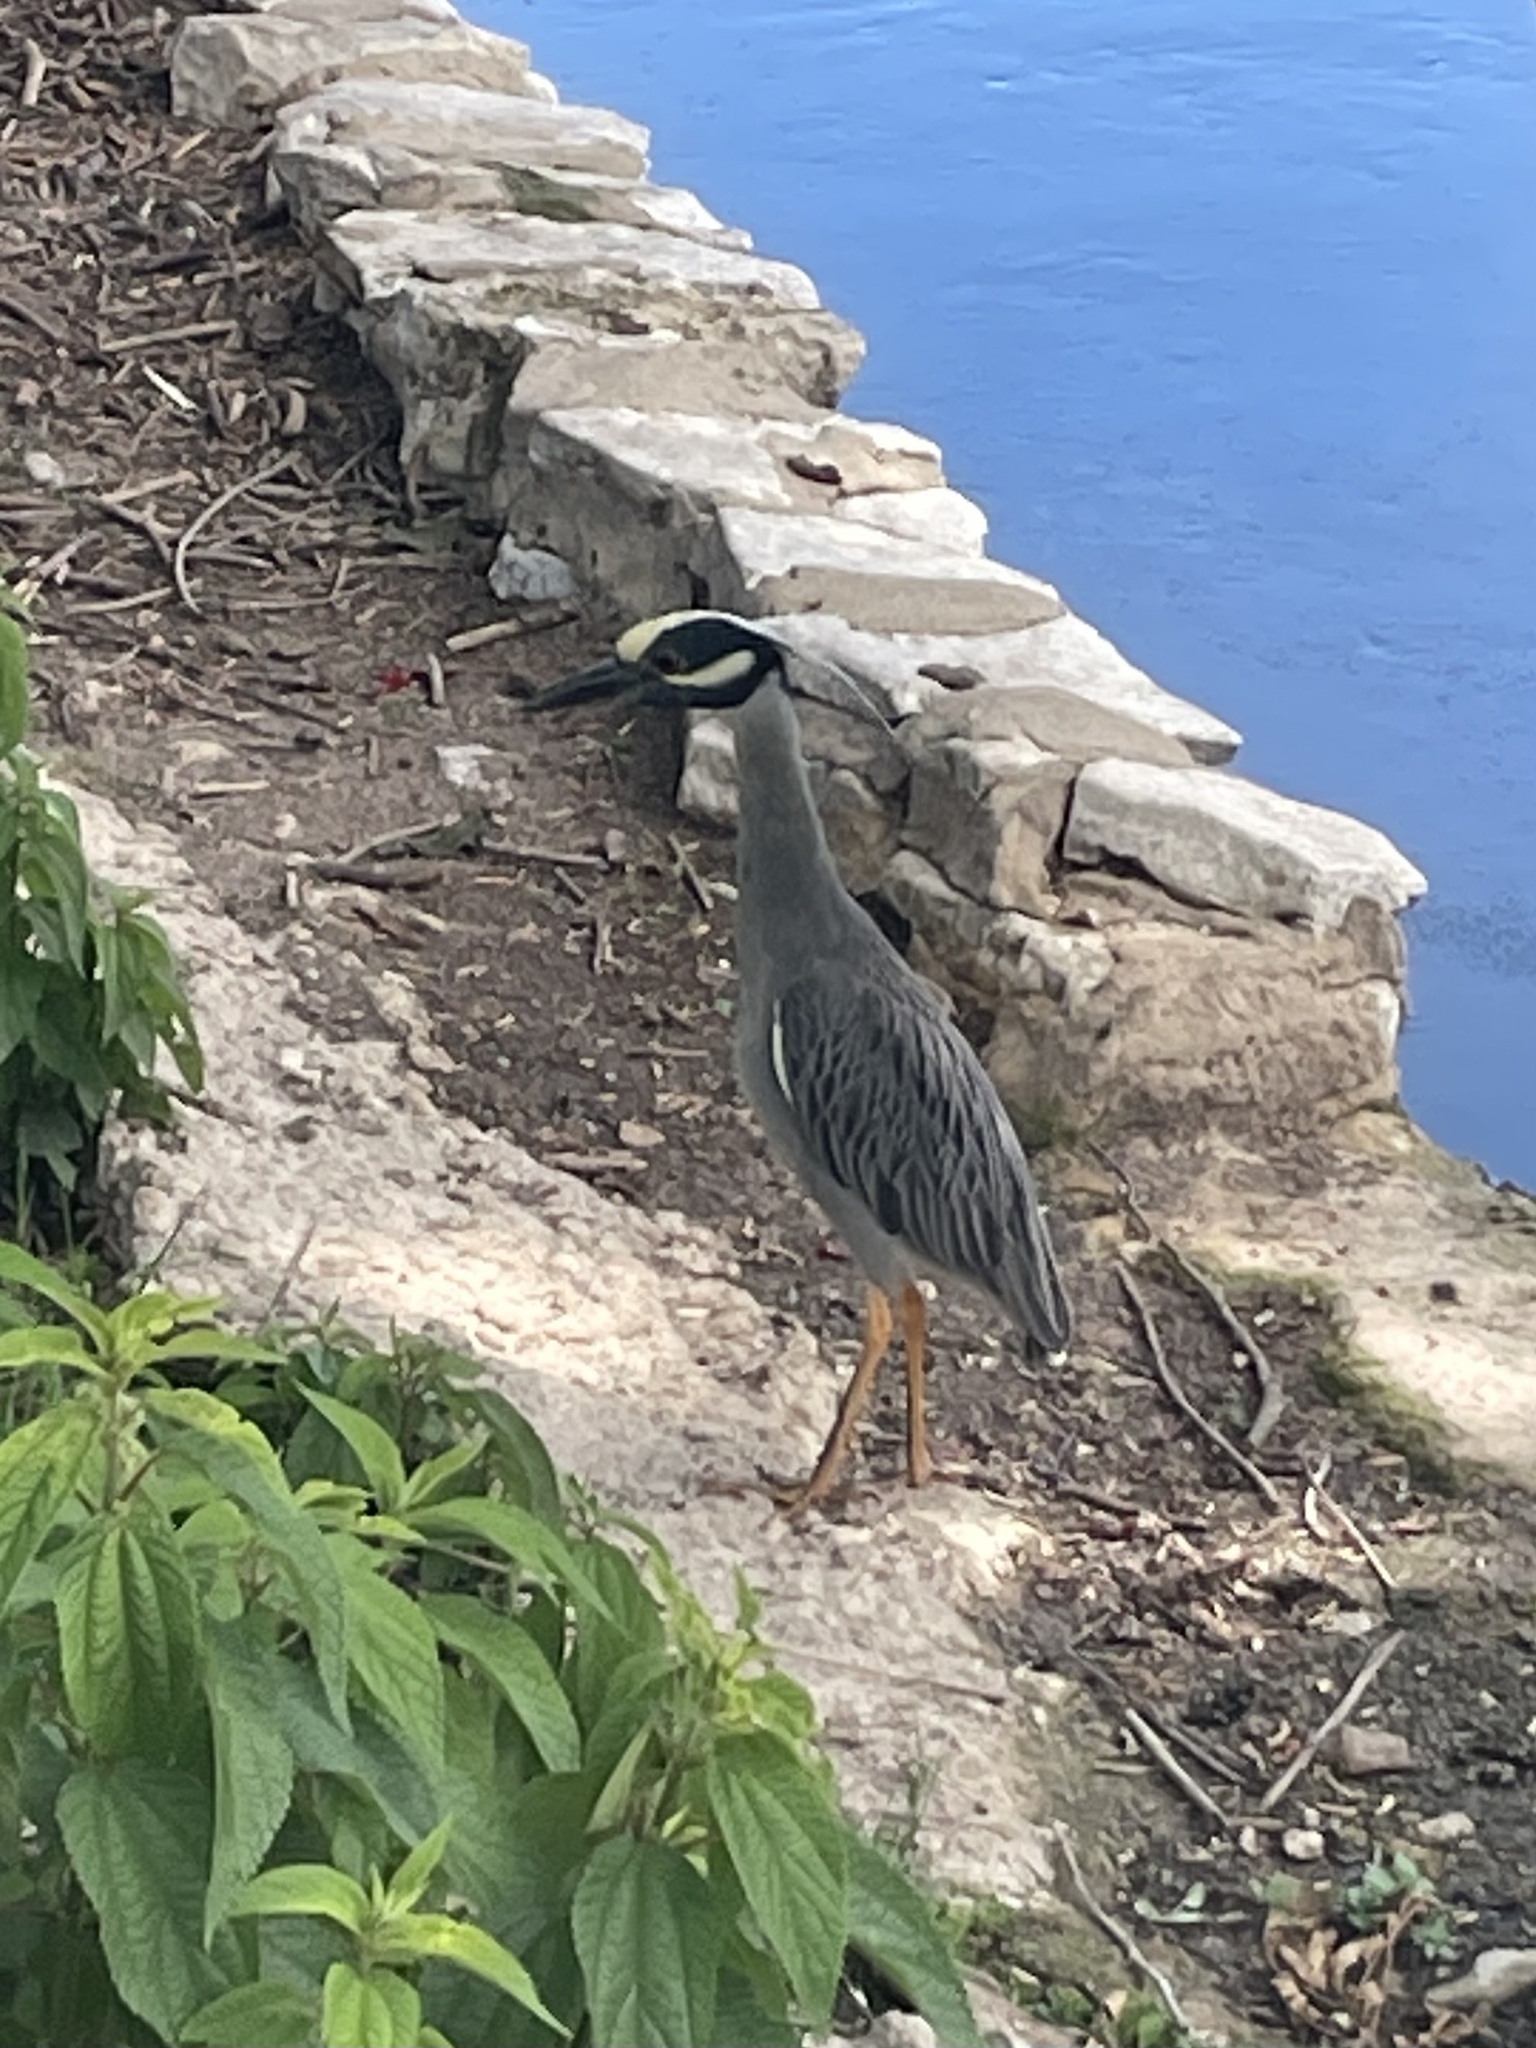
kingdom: Animalia
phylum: Chordata
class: Aves
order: Pelecaniformes
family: Ardeidae
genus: Nyctanassa
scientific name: Nyctanassa violacea
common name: Yellow-crowned night heron
